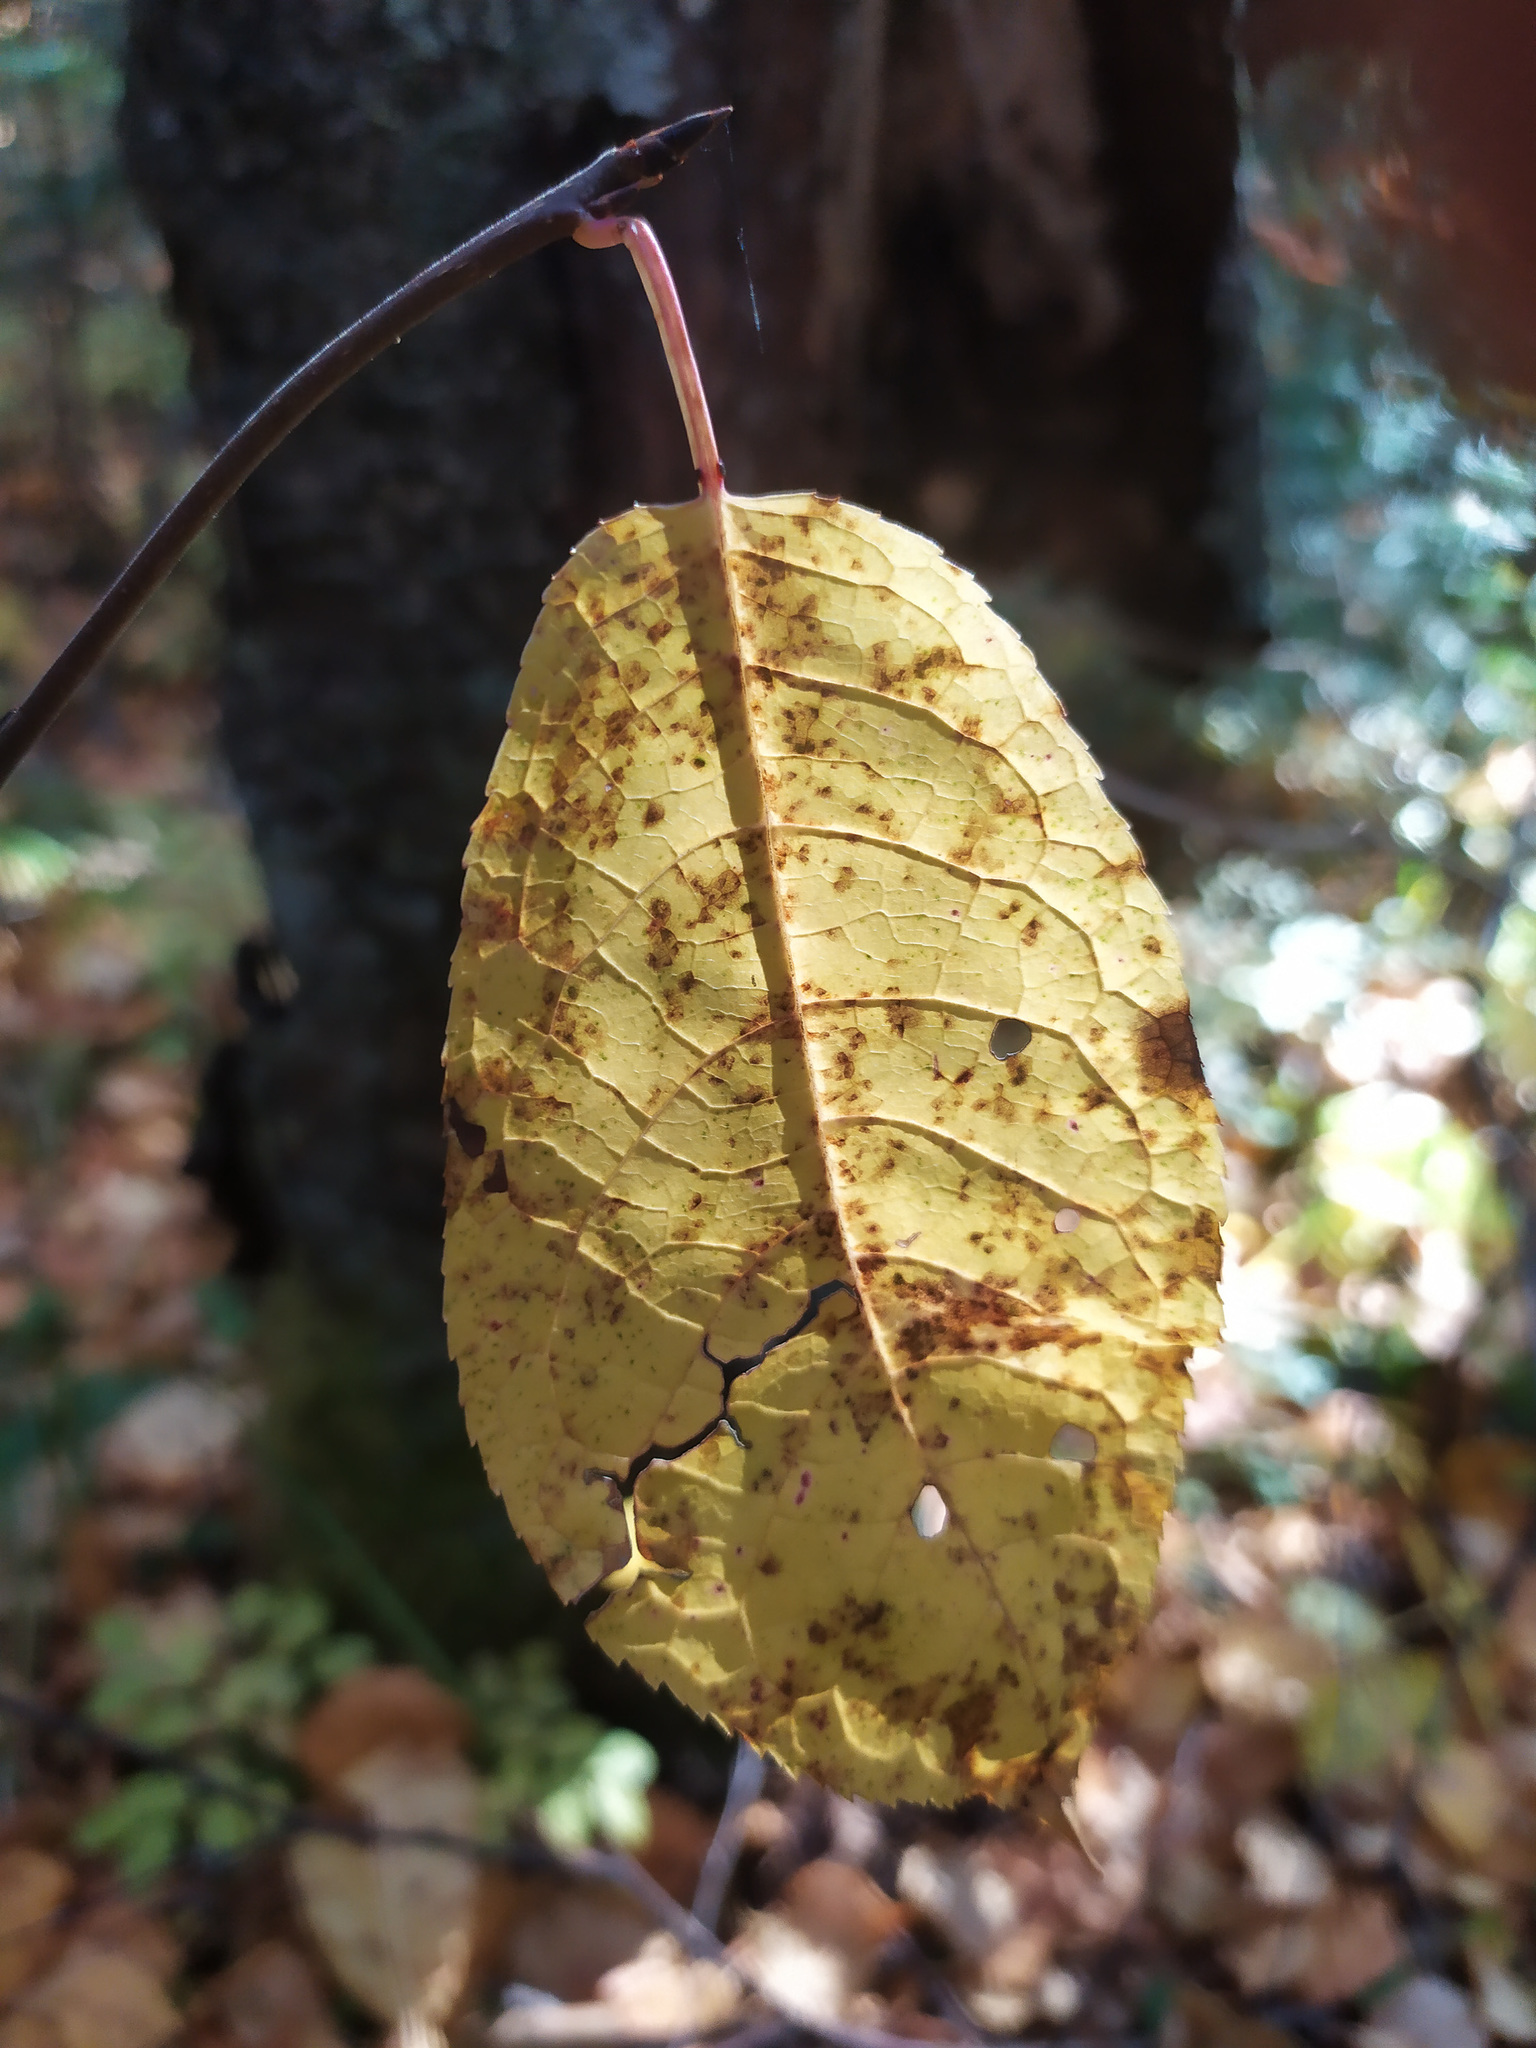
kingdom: Plantae
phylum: Tracheophyta
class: Magnoliopsida
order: Rosales
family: Rosaceae
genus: Prunus
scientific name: Prunus padus
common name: Bird cherry
